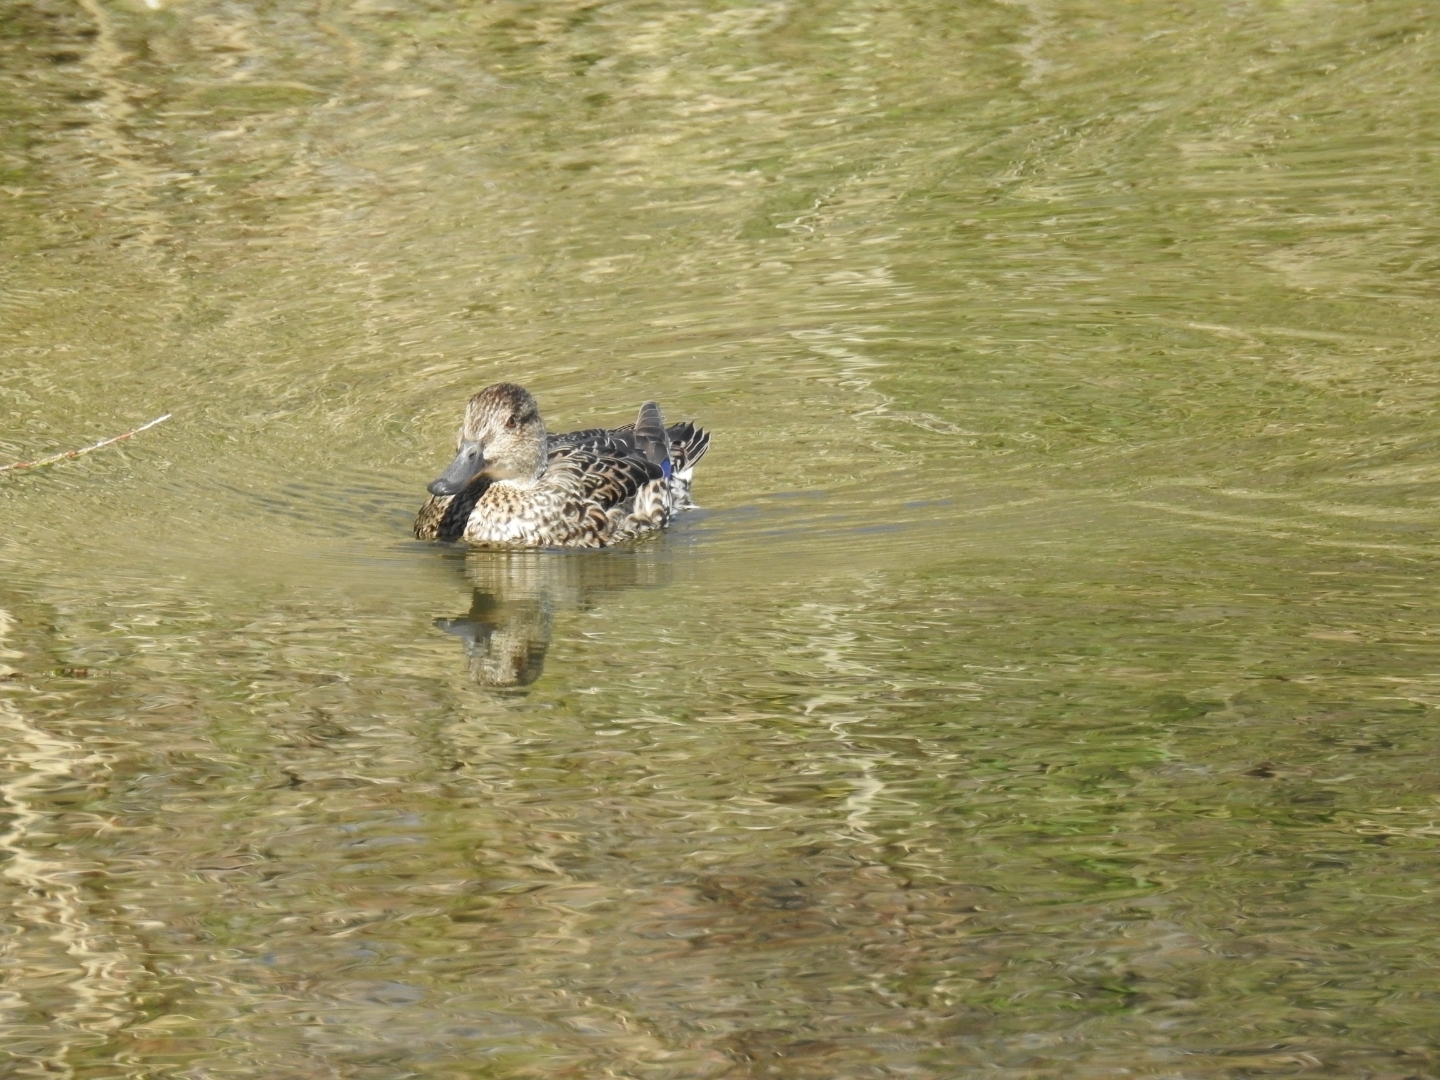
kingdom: Animalia
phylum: Chordata
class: Aves
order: Anseriformes
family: Anatidae
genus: Anas
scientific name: Anas crecca
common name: Eurasian teal
